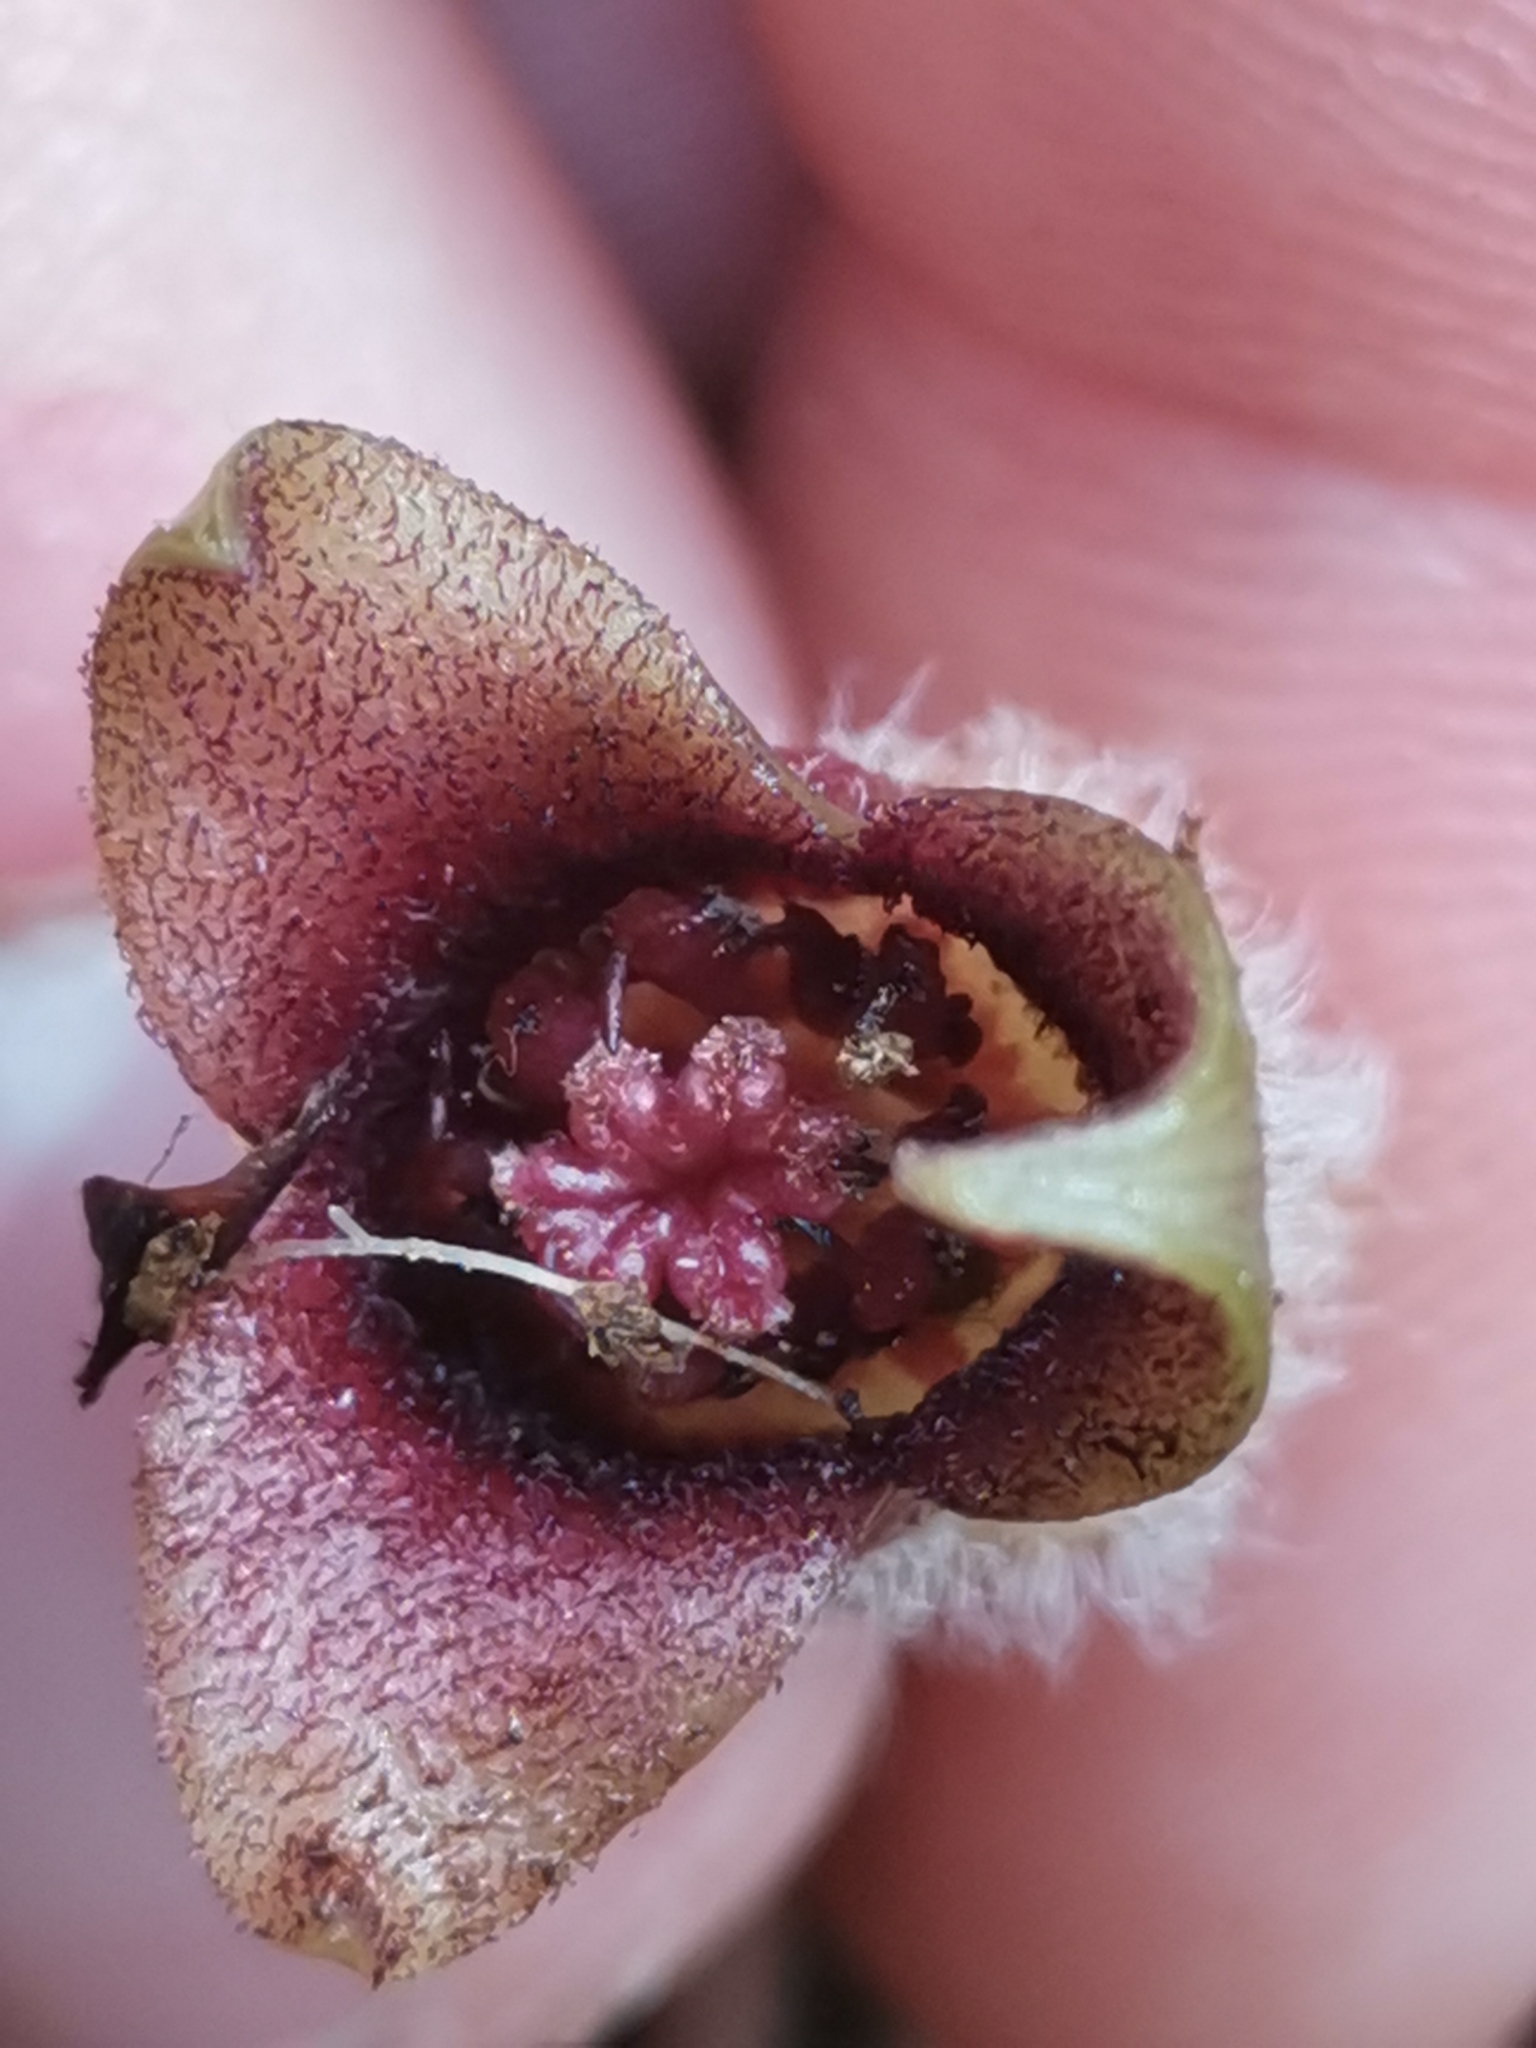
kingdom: Plantae
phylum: Tracheophyta
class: Magnoliopsida
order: Piperales
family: Aristolochiaceae
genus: Asarum
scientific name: Asarum europaeum
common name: Asarabacca
